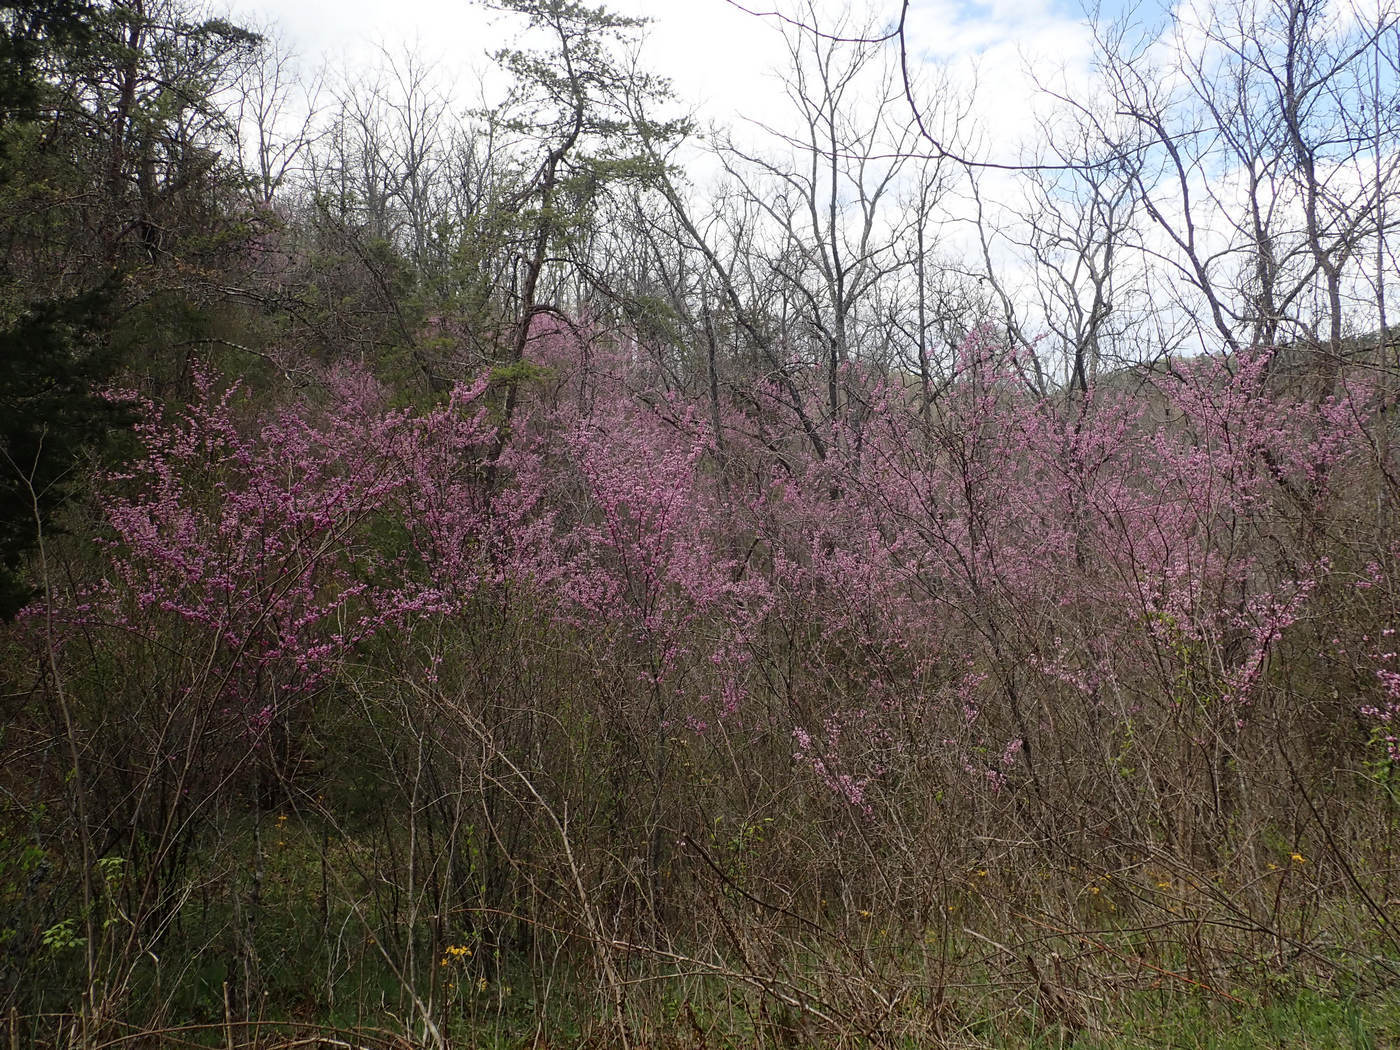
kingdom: Plantae
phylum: Tracheophyta
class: Magnoliopsida
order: Fabales
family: Fabaceae
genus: Cercis
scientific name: Cercis canadensis
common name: Eastern redbud
